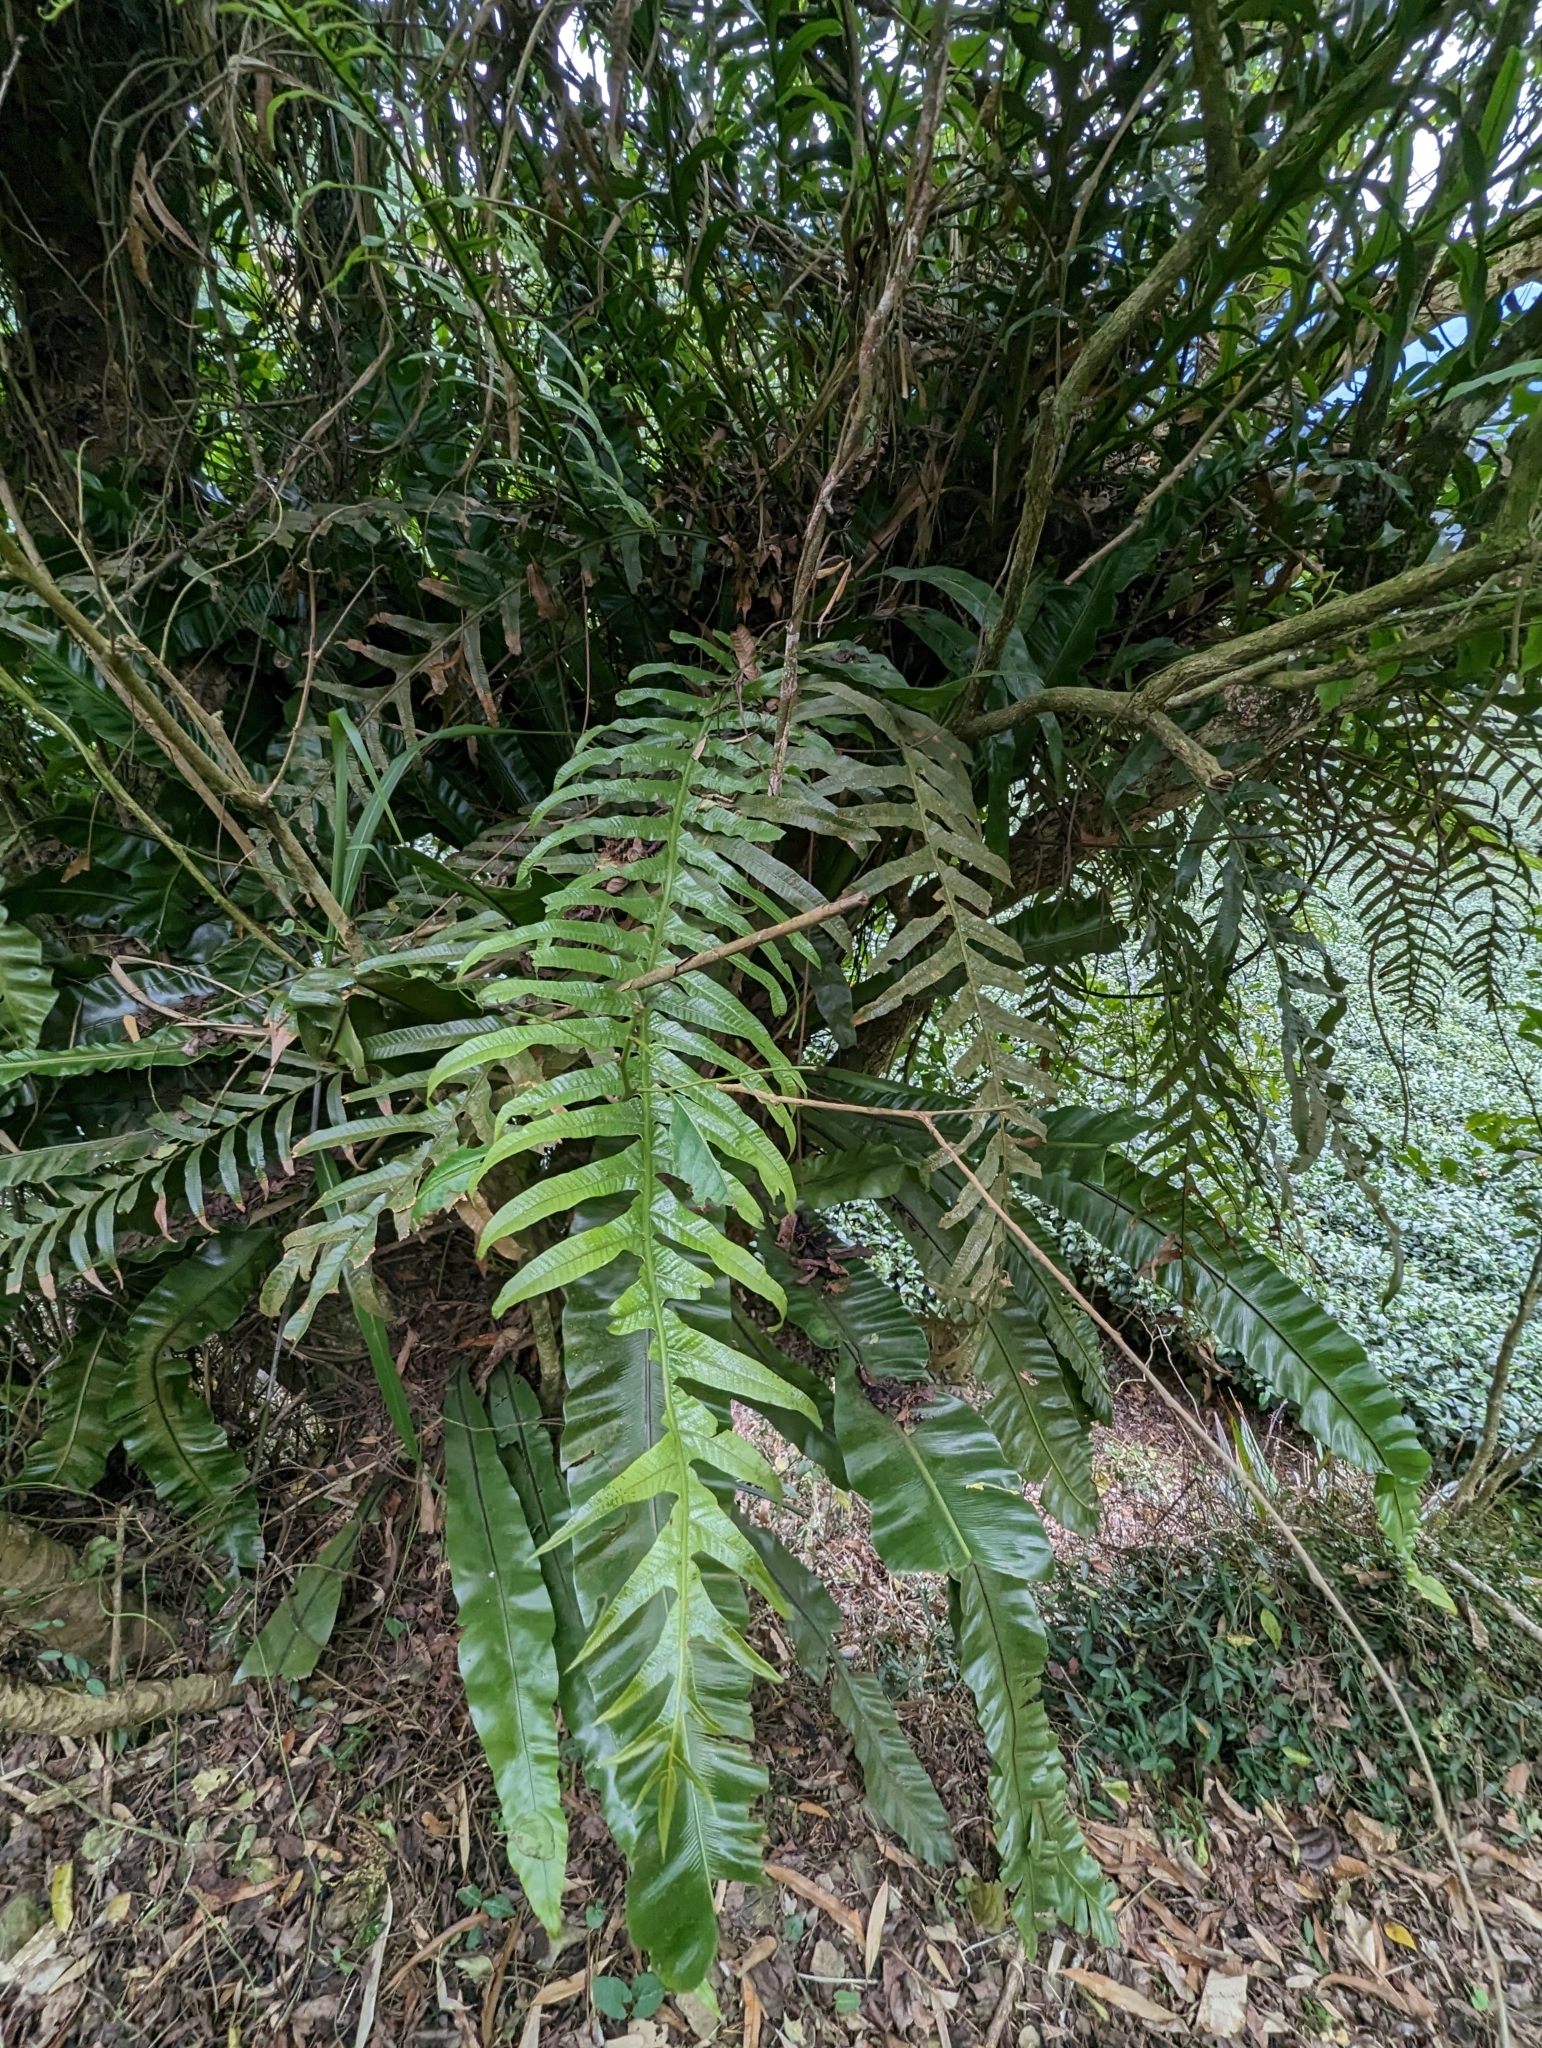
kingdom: Plantae
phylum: Tracheophyta
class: Polypodiopsida
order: Polypodiales
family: Polypodiaceae
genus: Drynaria
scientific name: Drynaria coronans
